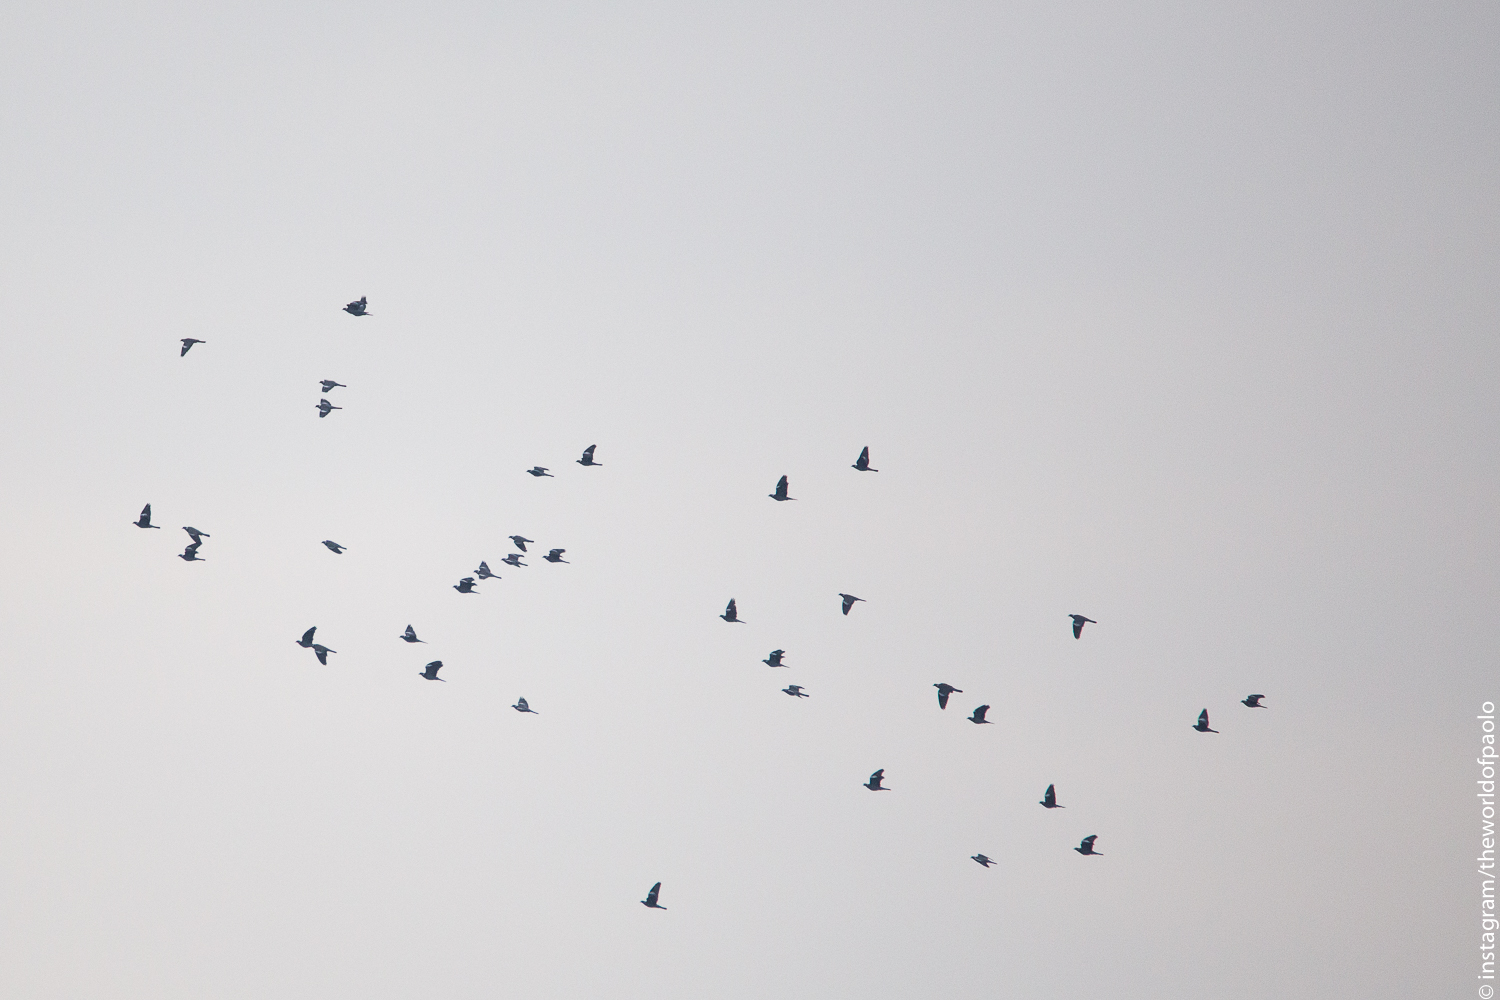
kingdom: Animalia
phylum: Chordata
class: Aves
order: Columbiformes
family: Columbidae
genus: Columba
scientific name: Columba palumbus
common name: Common wood pigeon
